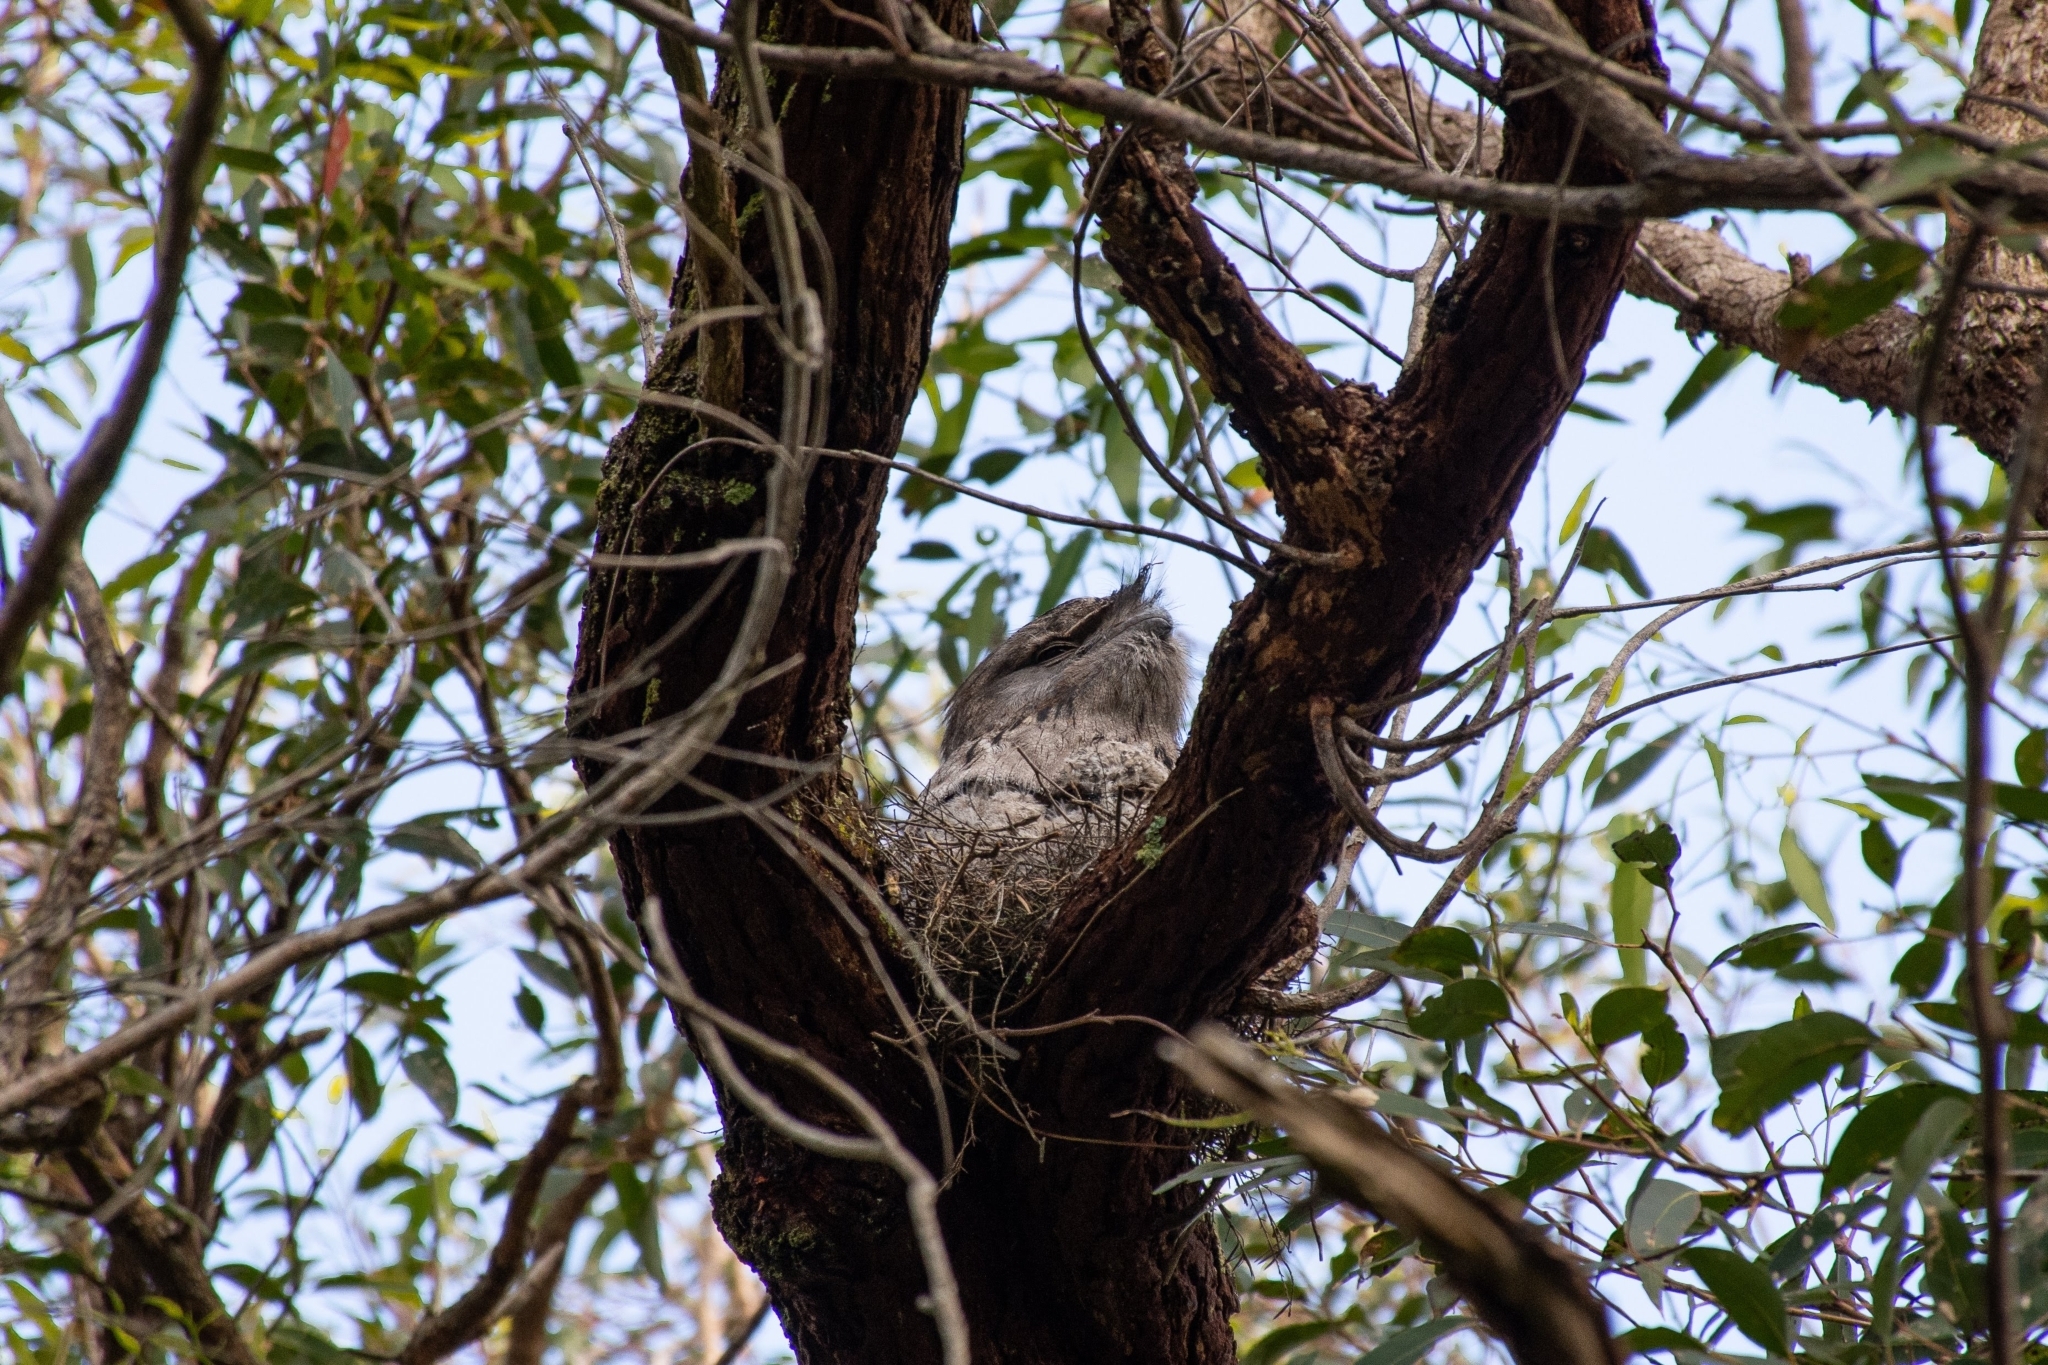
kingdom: Animalia
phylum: Chordata
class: Aves
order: Caprimulgiformes
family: Podargidae
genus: Podargus
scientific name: Podargus strigoides
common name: Tawny frogmouth
